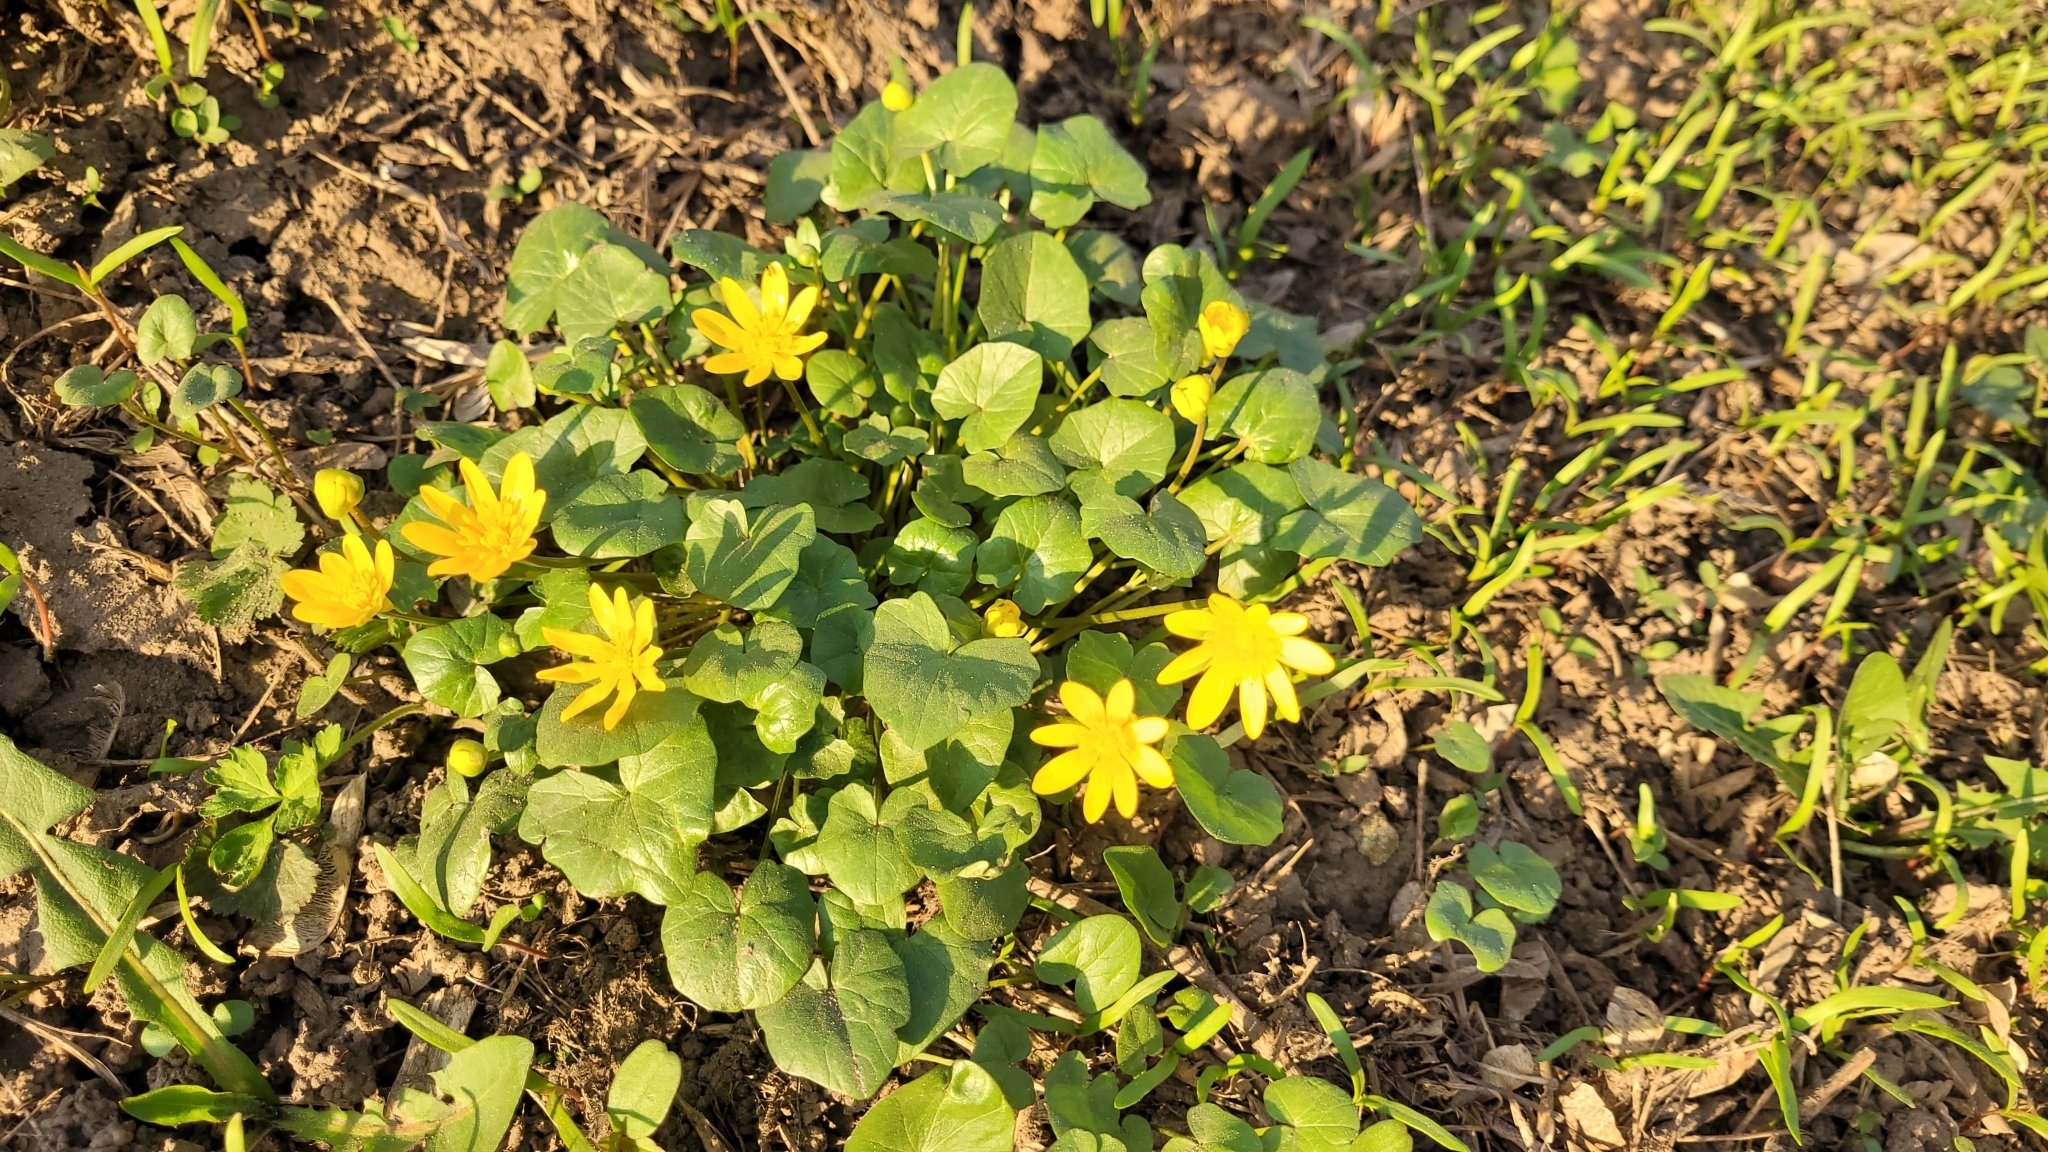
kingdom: Plantae
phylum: Tracheophyta
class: Magnoliopsida
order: Ranunculales
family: Ranunculaceae
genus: Ficaria
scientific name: Ficaria verna
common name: Lesser celandine
